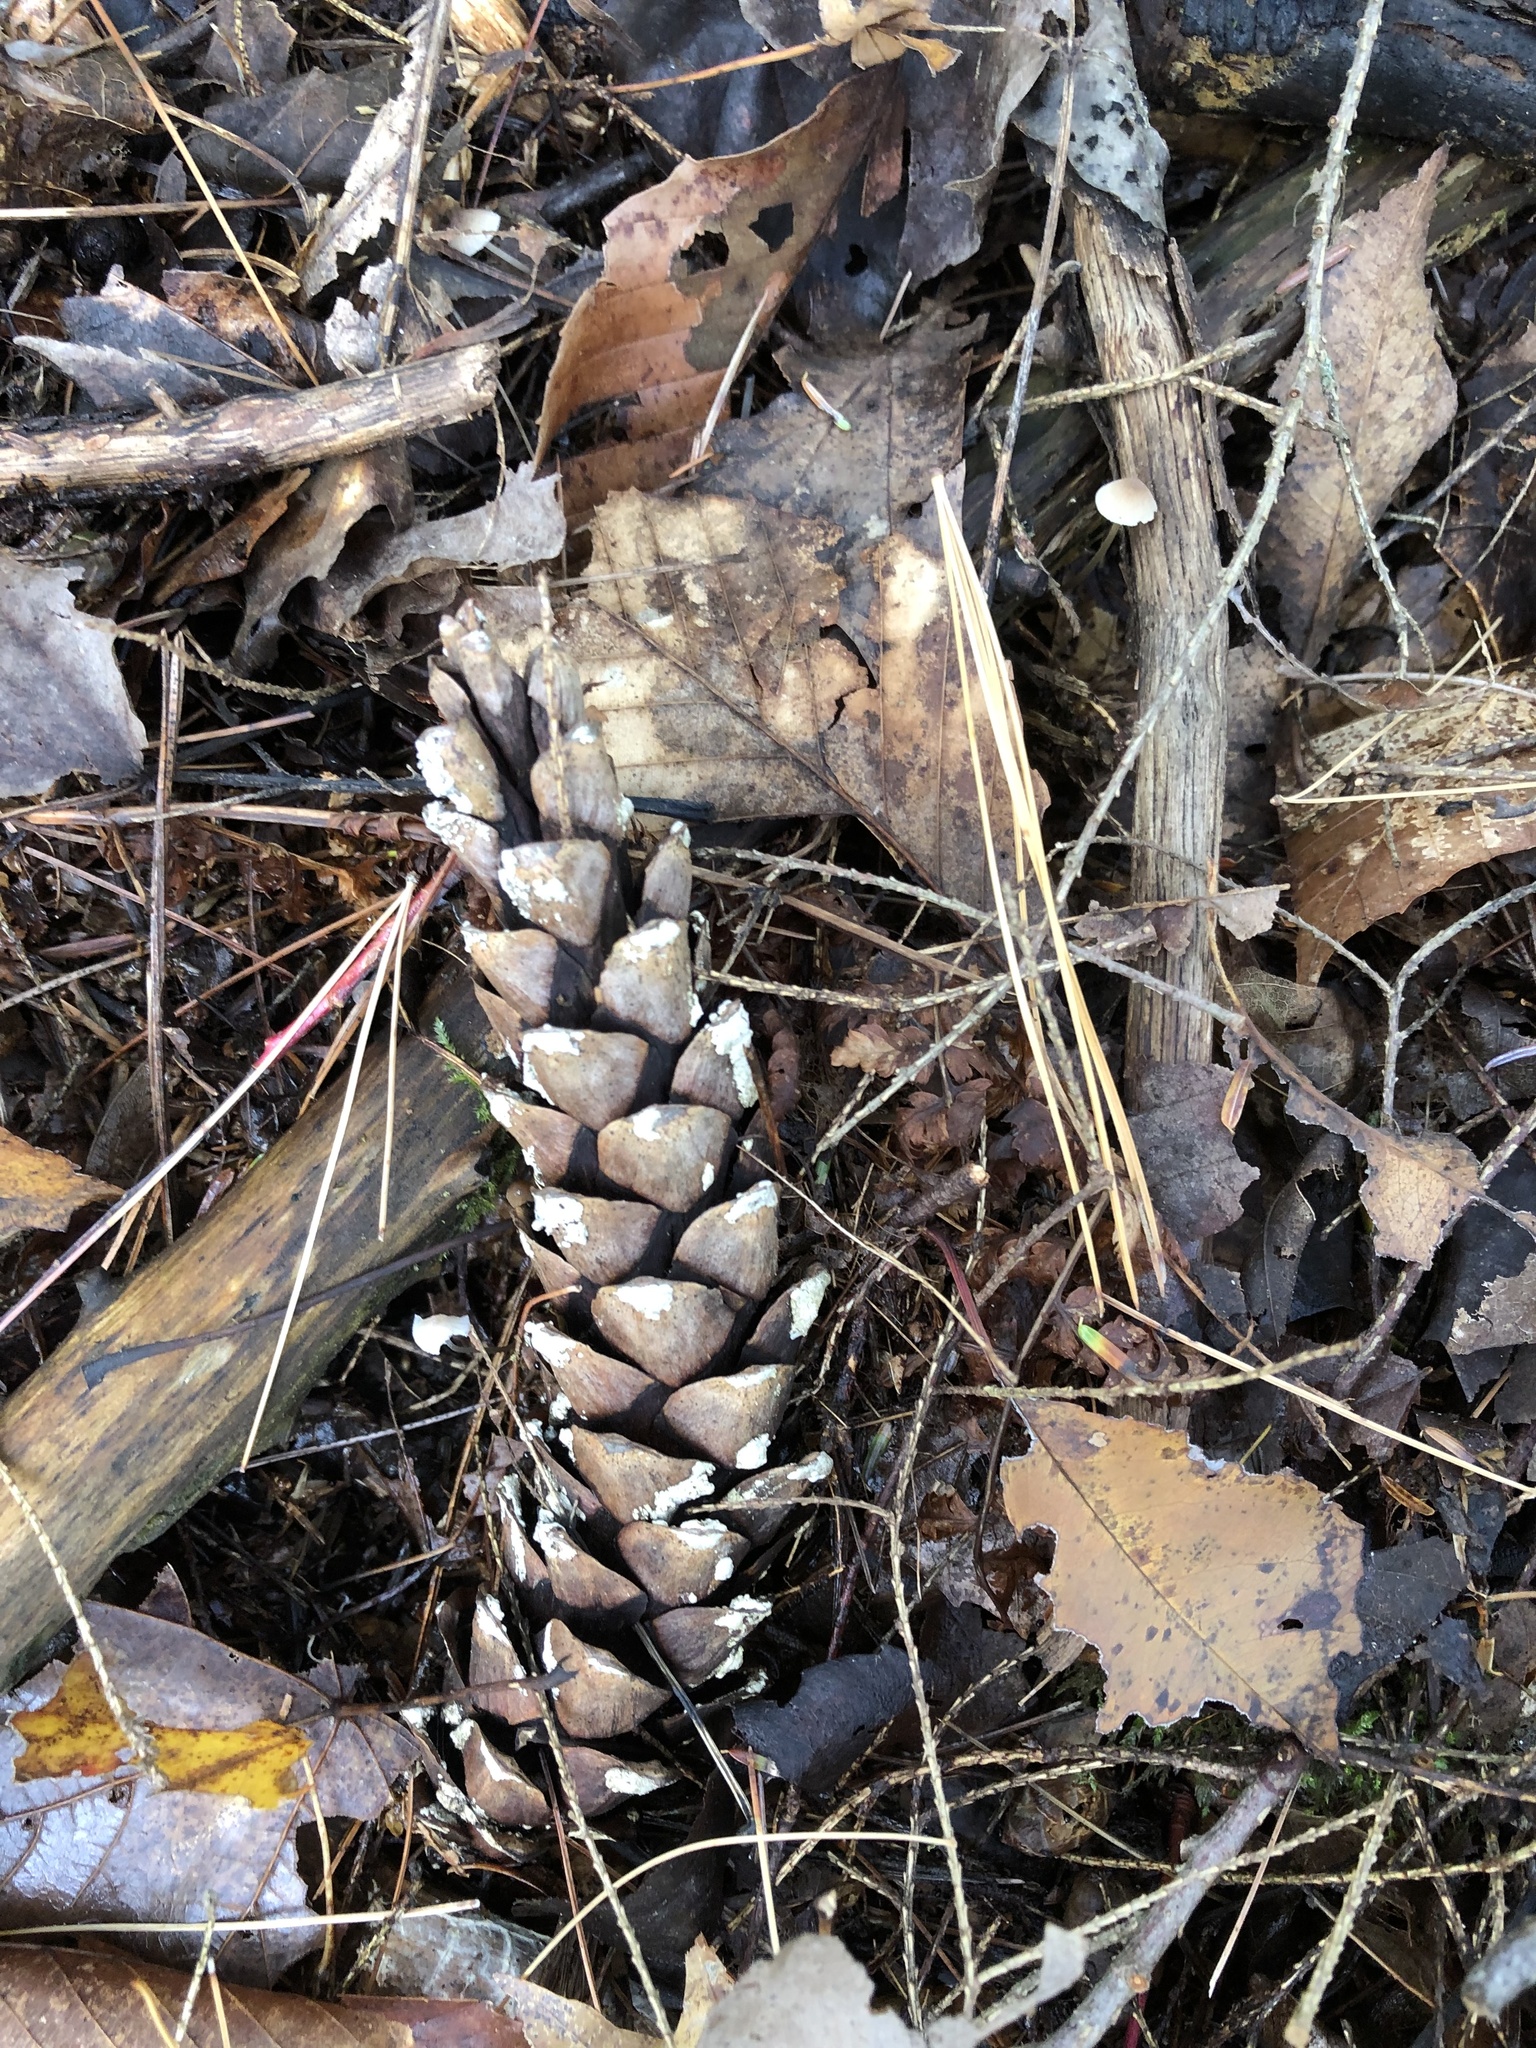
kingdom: Plantae
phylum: Tracheophyta
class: Pinopsida
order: Pinales
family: Pinaceae
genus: Pinus
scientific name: Pinus strobus
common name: Weymouth pine
